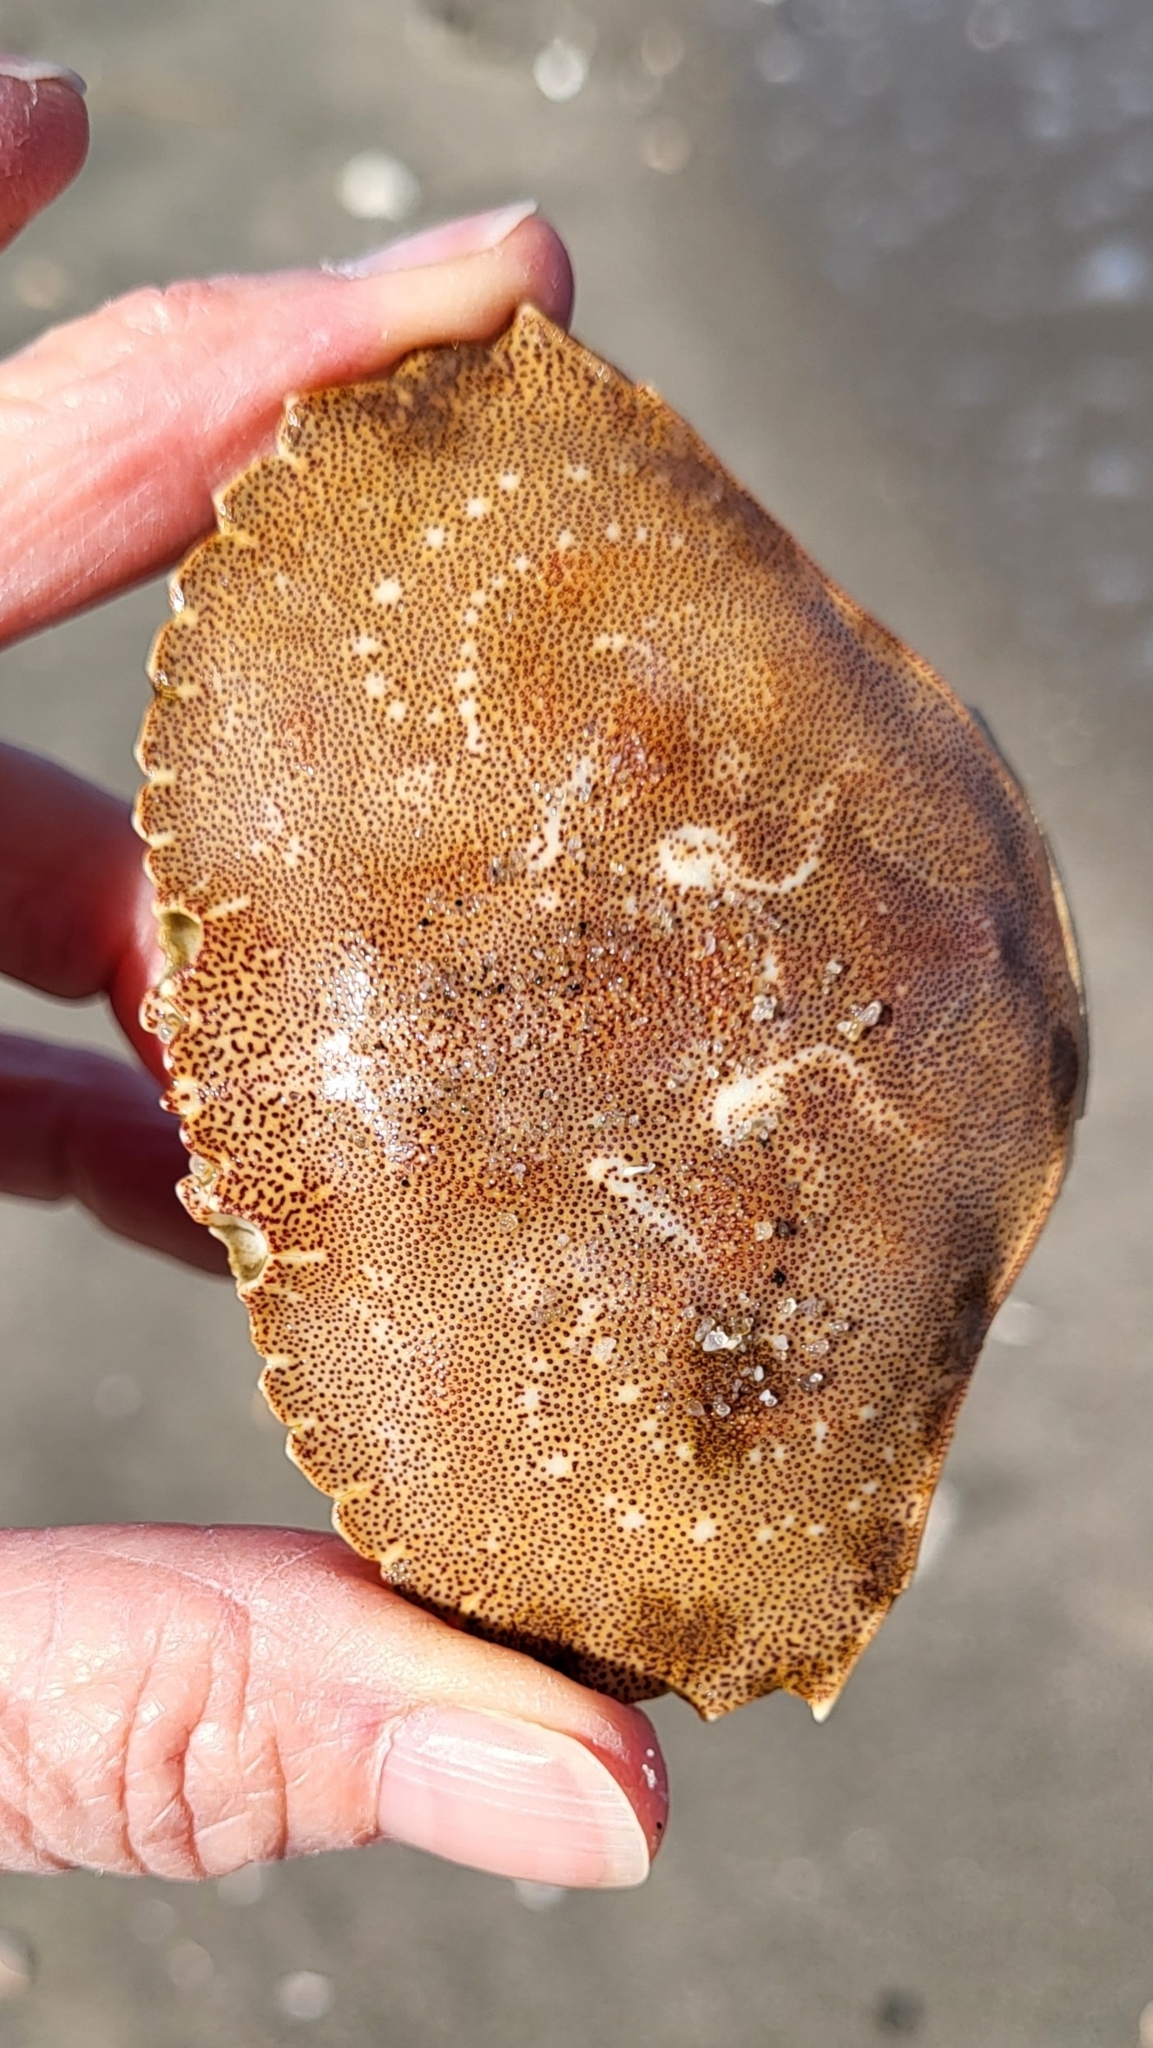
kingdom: Animalia
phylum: Arthropoda
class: Malacostraca
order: Decapoda
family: Cancridae
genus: Cancer
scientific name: Cancer irroratus
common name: Atlantic rock crab
